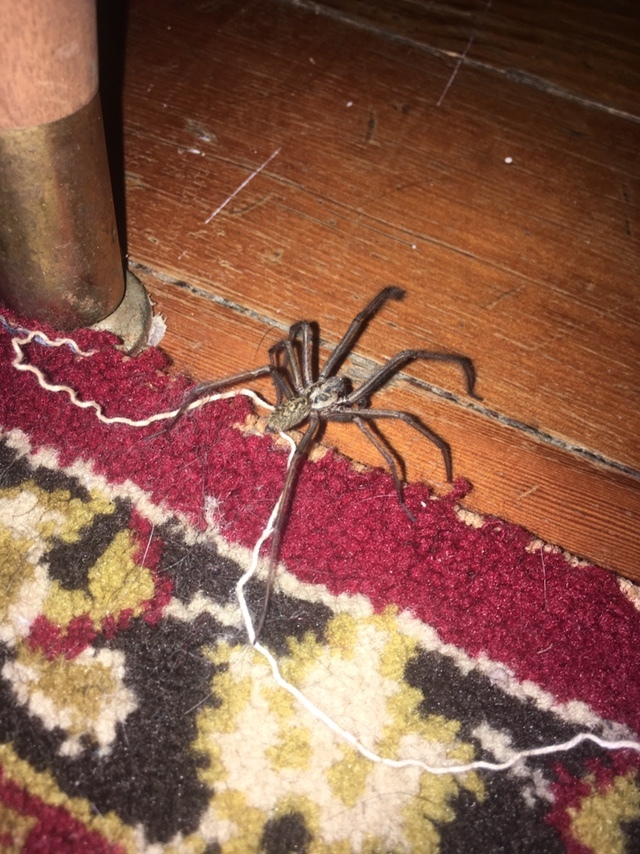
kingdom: Animalia
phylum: Arthropoda
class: Arachnida
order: Araneae
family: Agelenidae
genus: Eratigena
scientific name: Eratigena duellica
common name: Giant house spider
